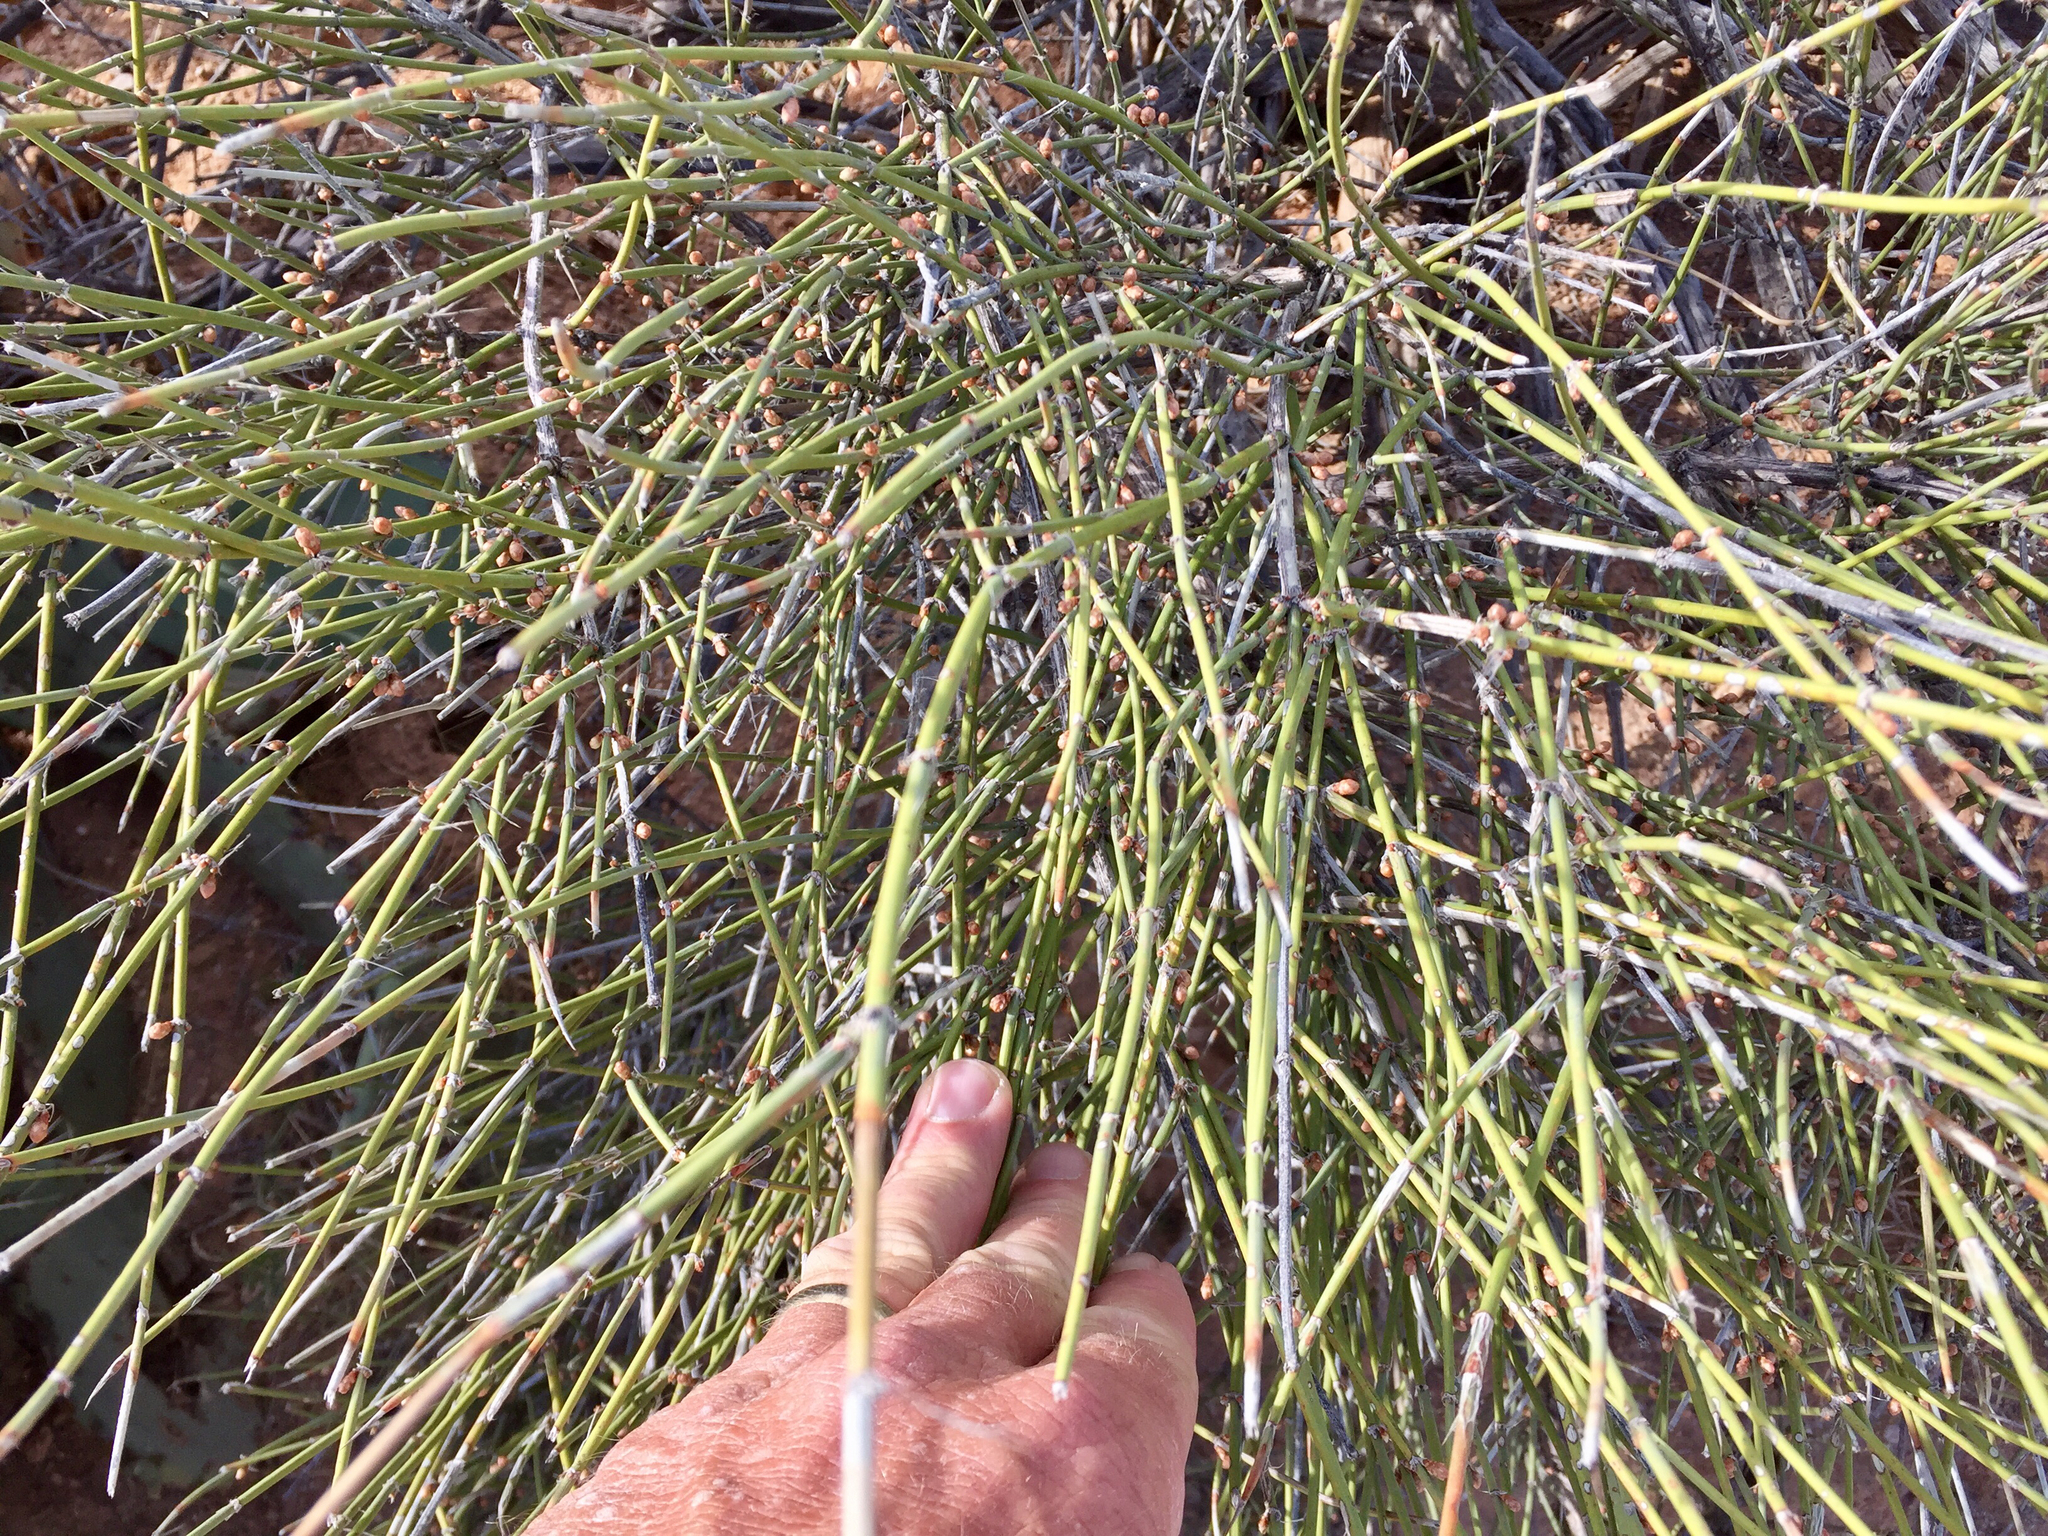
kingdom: Plantae
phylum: Tracheophyta
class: Gnetopsida
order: Ephedrales
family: Ephedraceae
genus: Ephedra
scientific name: Ephedra trifurca
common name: Mexican-tea
